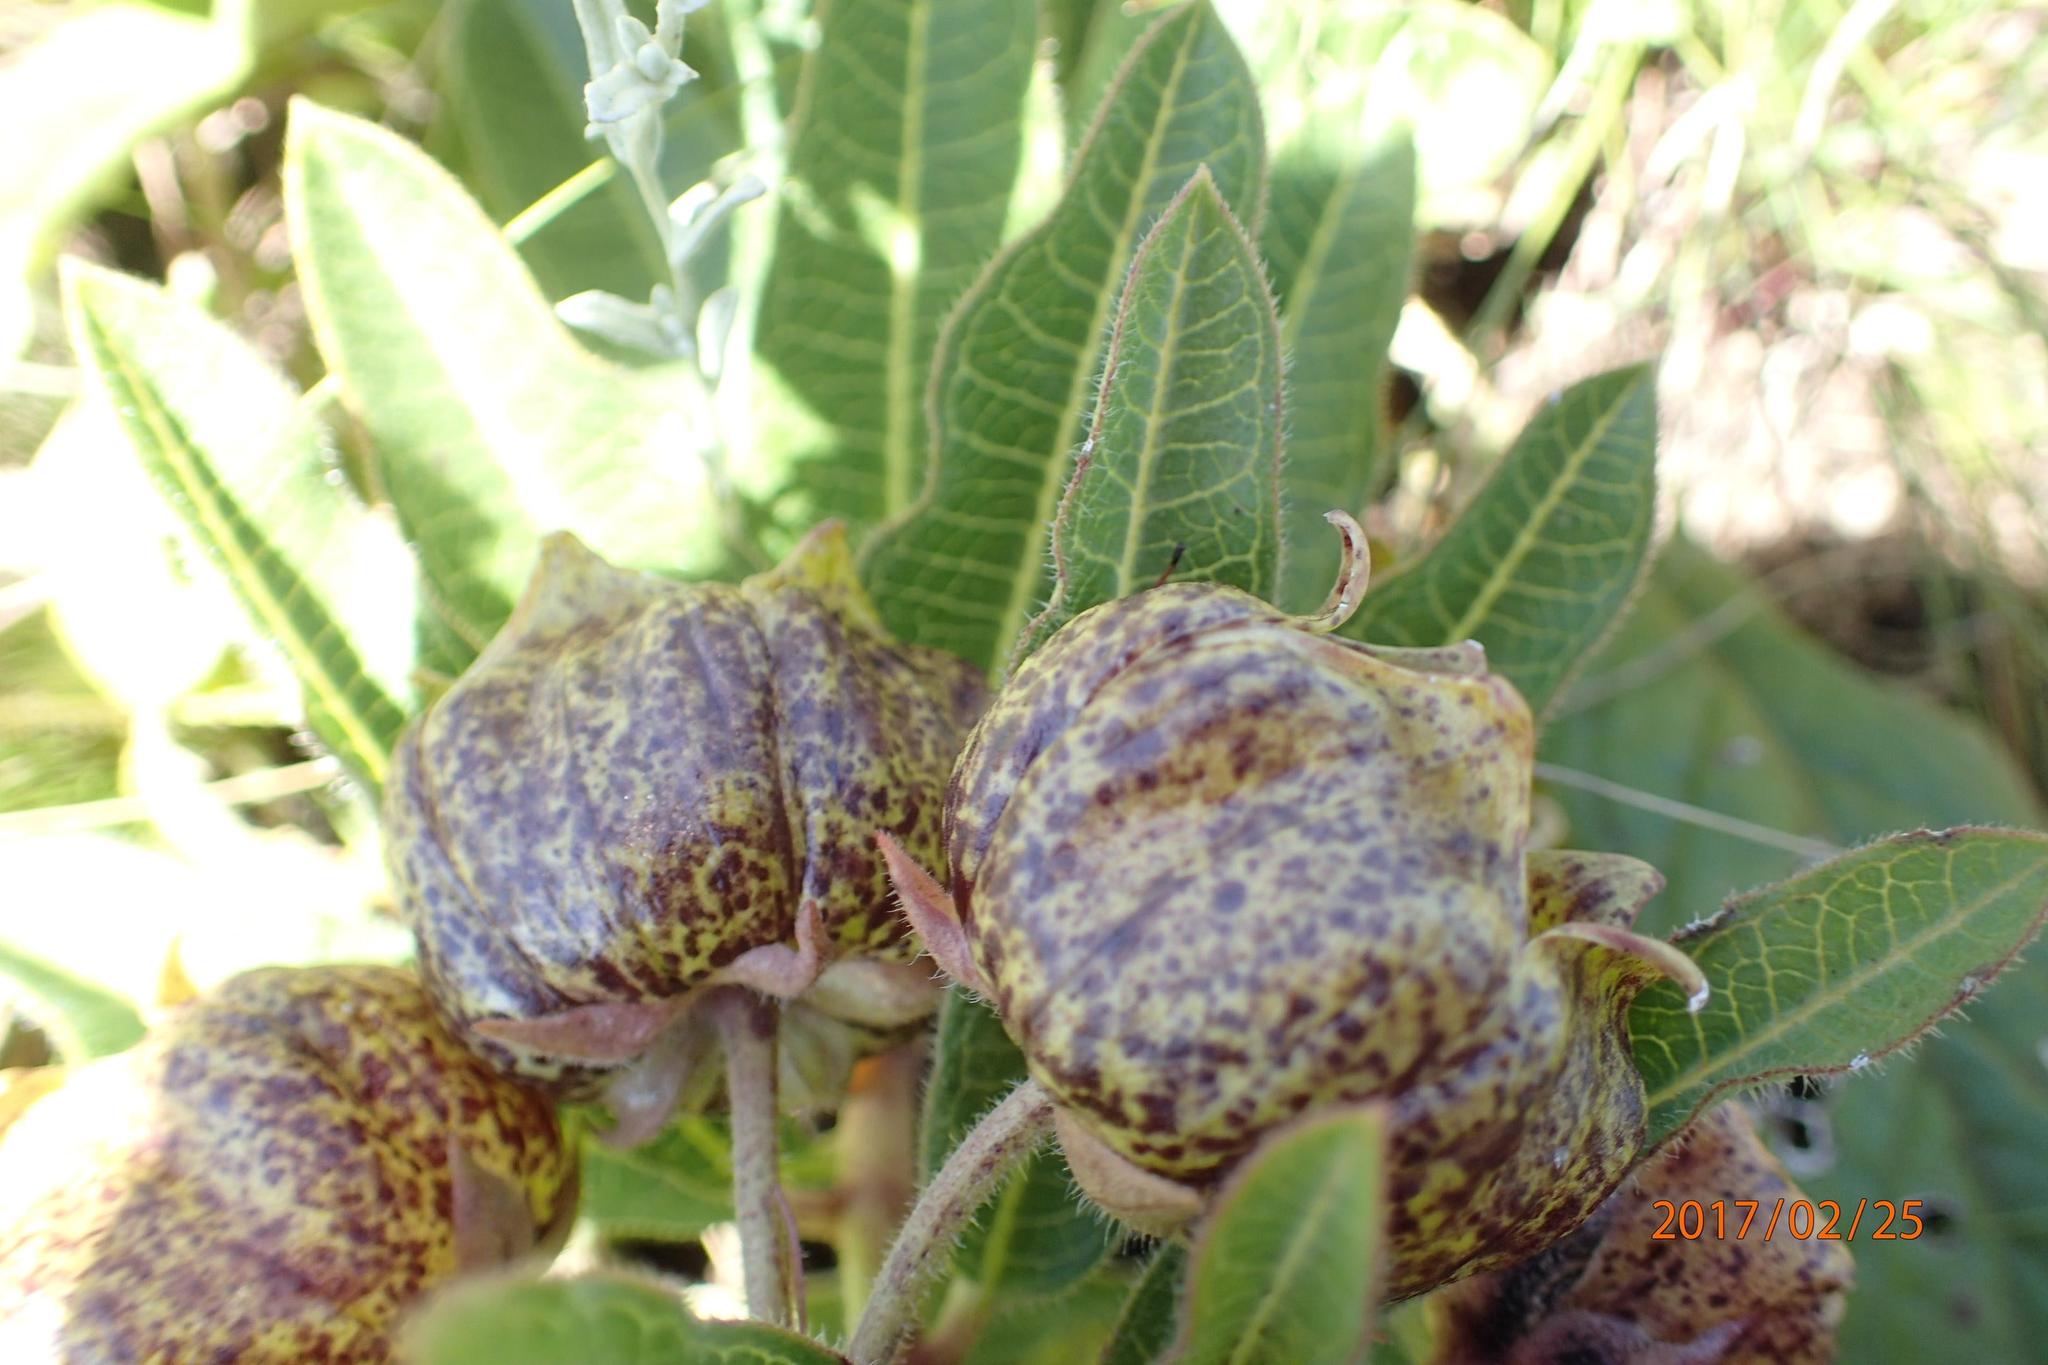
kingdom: Plantae
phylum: Tracheophyta
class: Magnoliopsida
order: Gentianales
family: Apocynaceae
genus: Pachycarpus
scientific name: Pachycarpus grandiflorus
